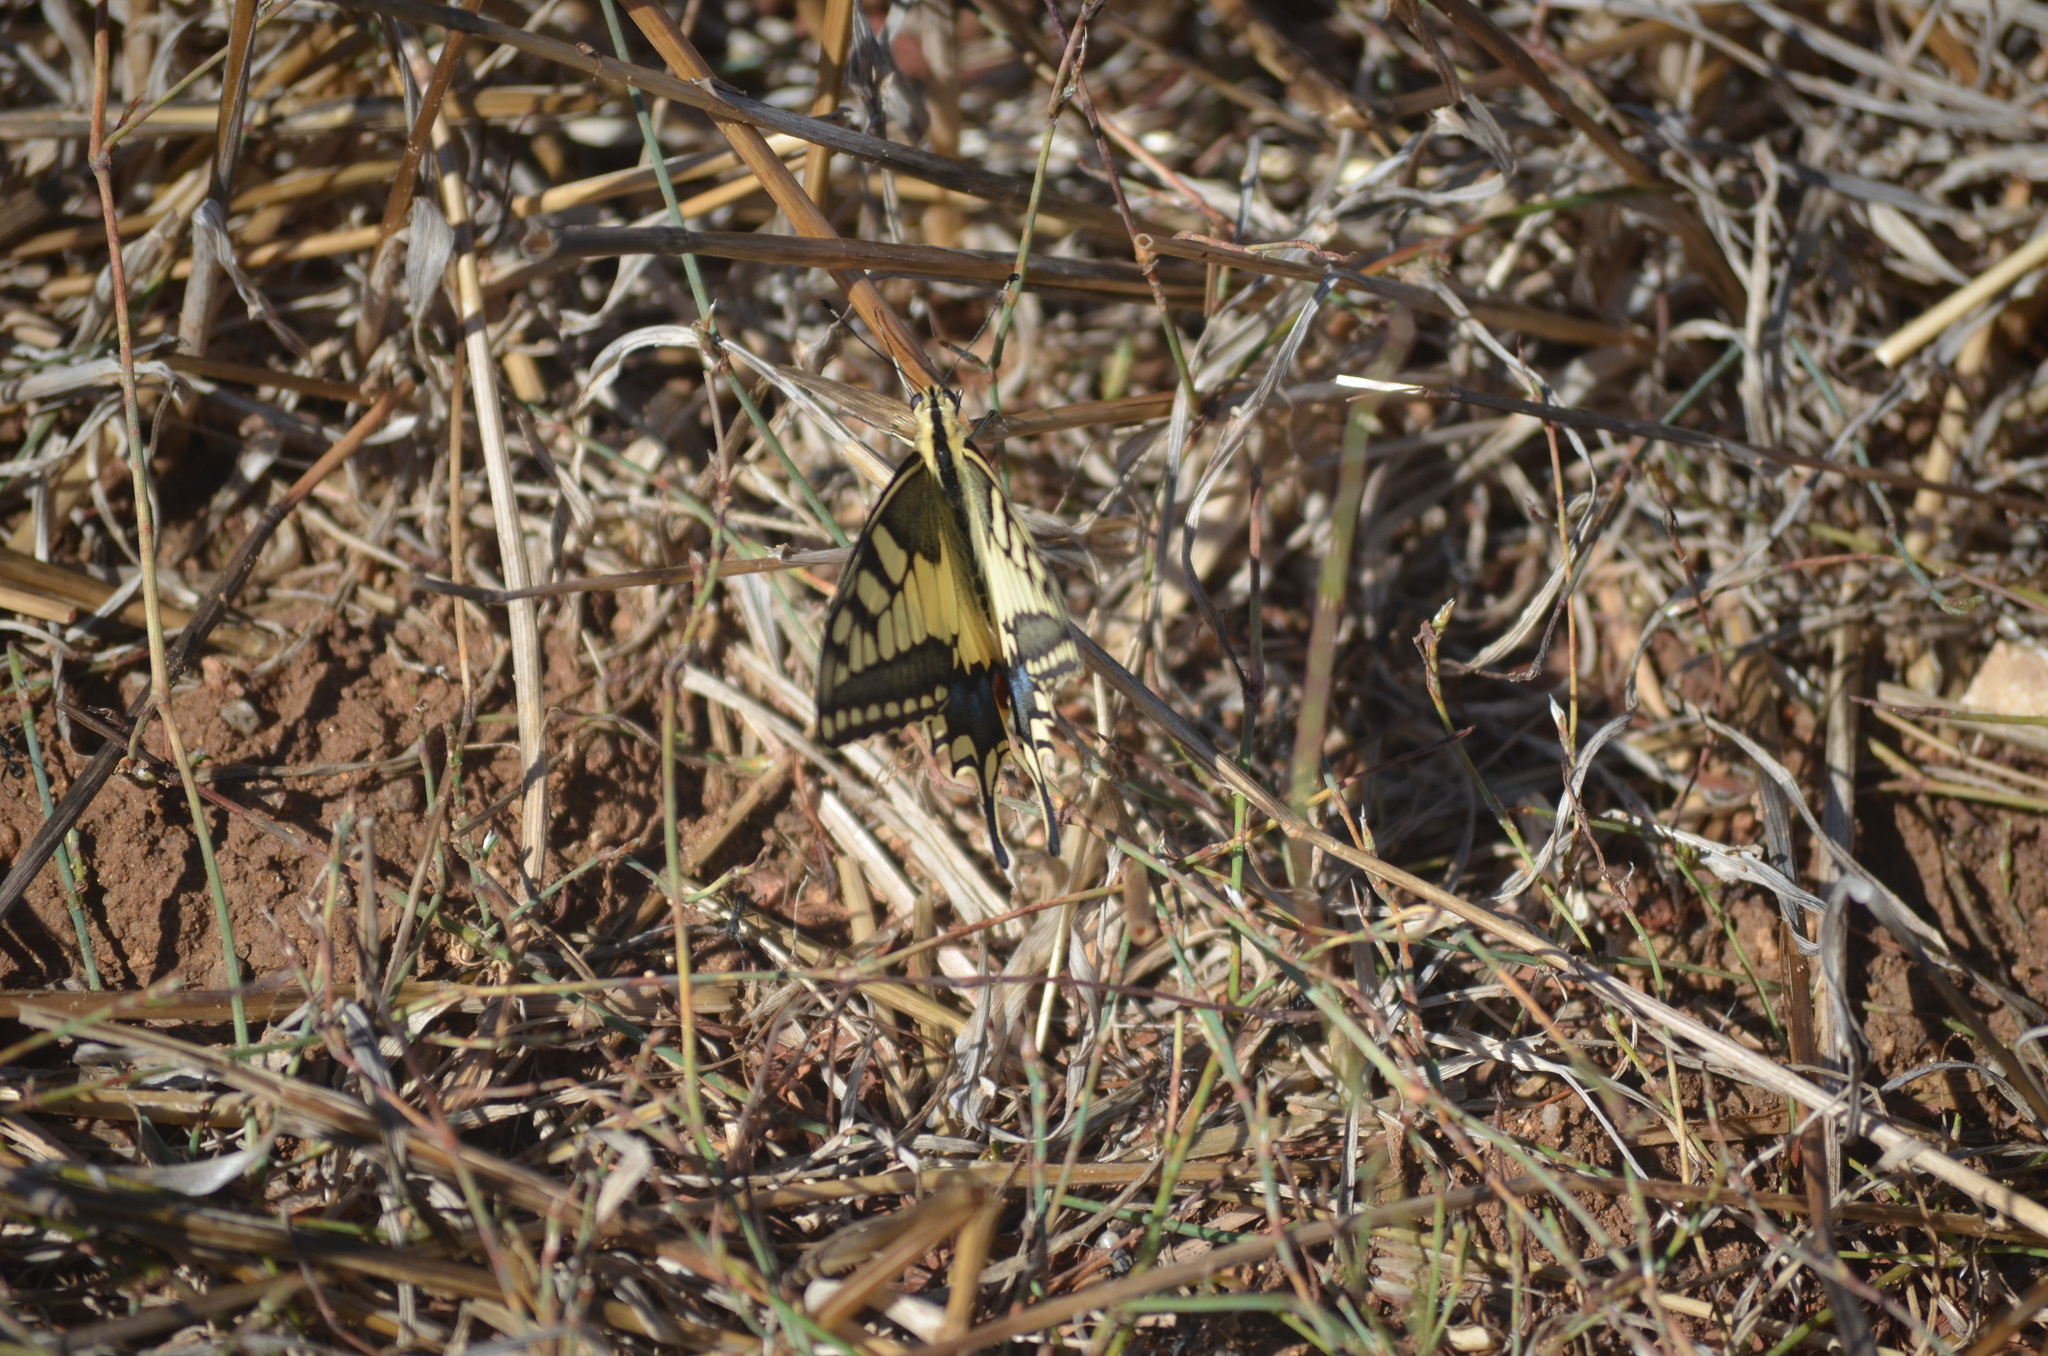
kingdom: Animalia
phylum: Arthropoda
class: Insecta
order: Lepidoptera
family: Papilionidae
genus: Papilio
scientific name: Papilio machaon
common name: Swallowtail
